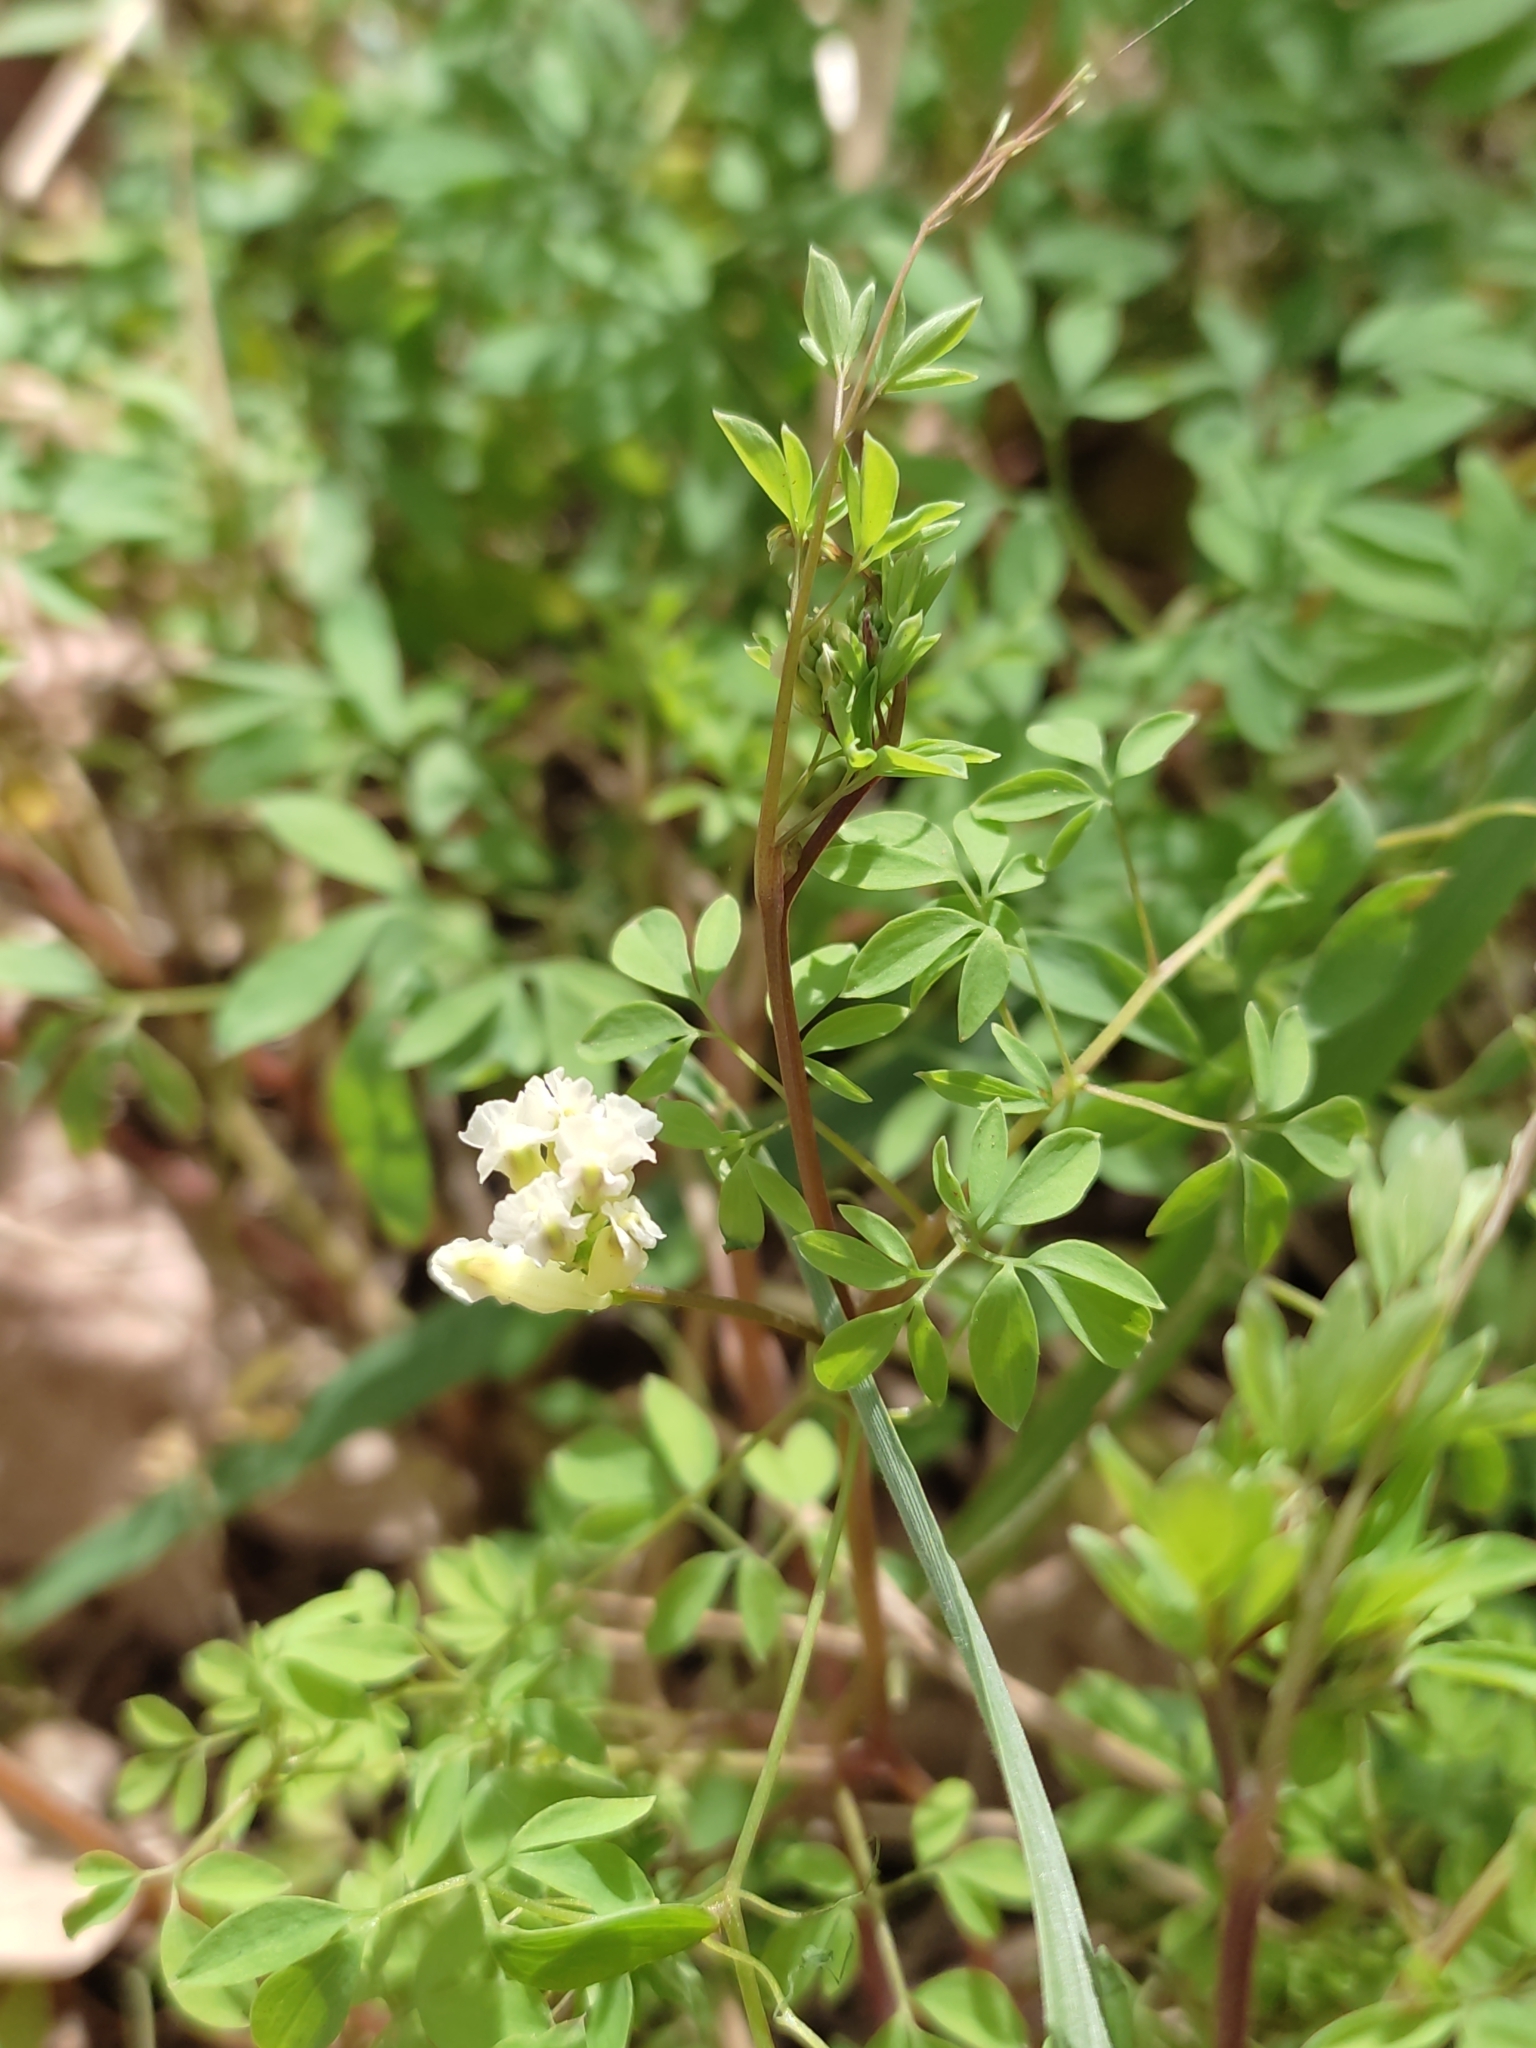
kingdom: Plantae
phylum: Tracheophyta
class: Magnoliopsida
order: Ranunculales
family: Papaveraceae
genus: Ceratocapnos
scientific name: Ceratocapnos claviculata
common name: Climbing corydalis
